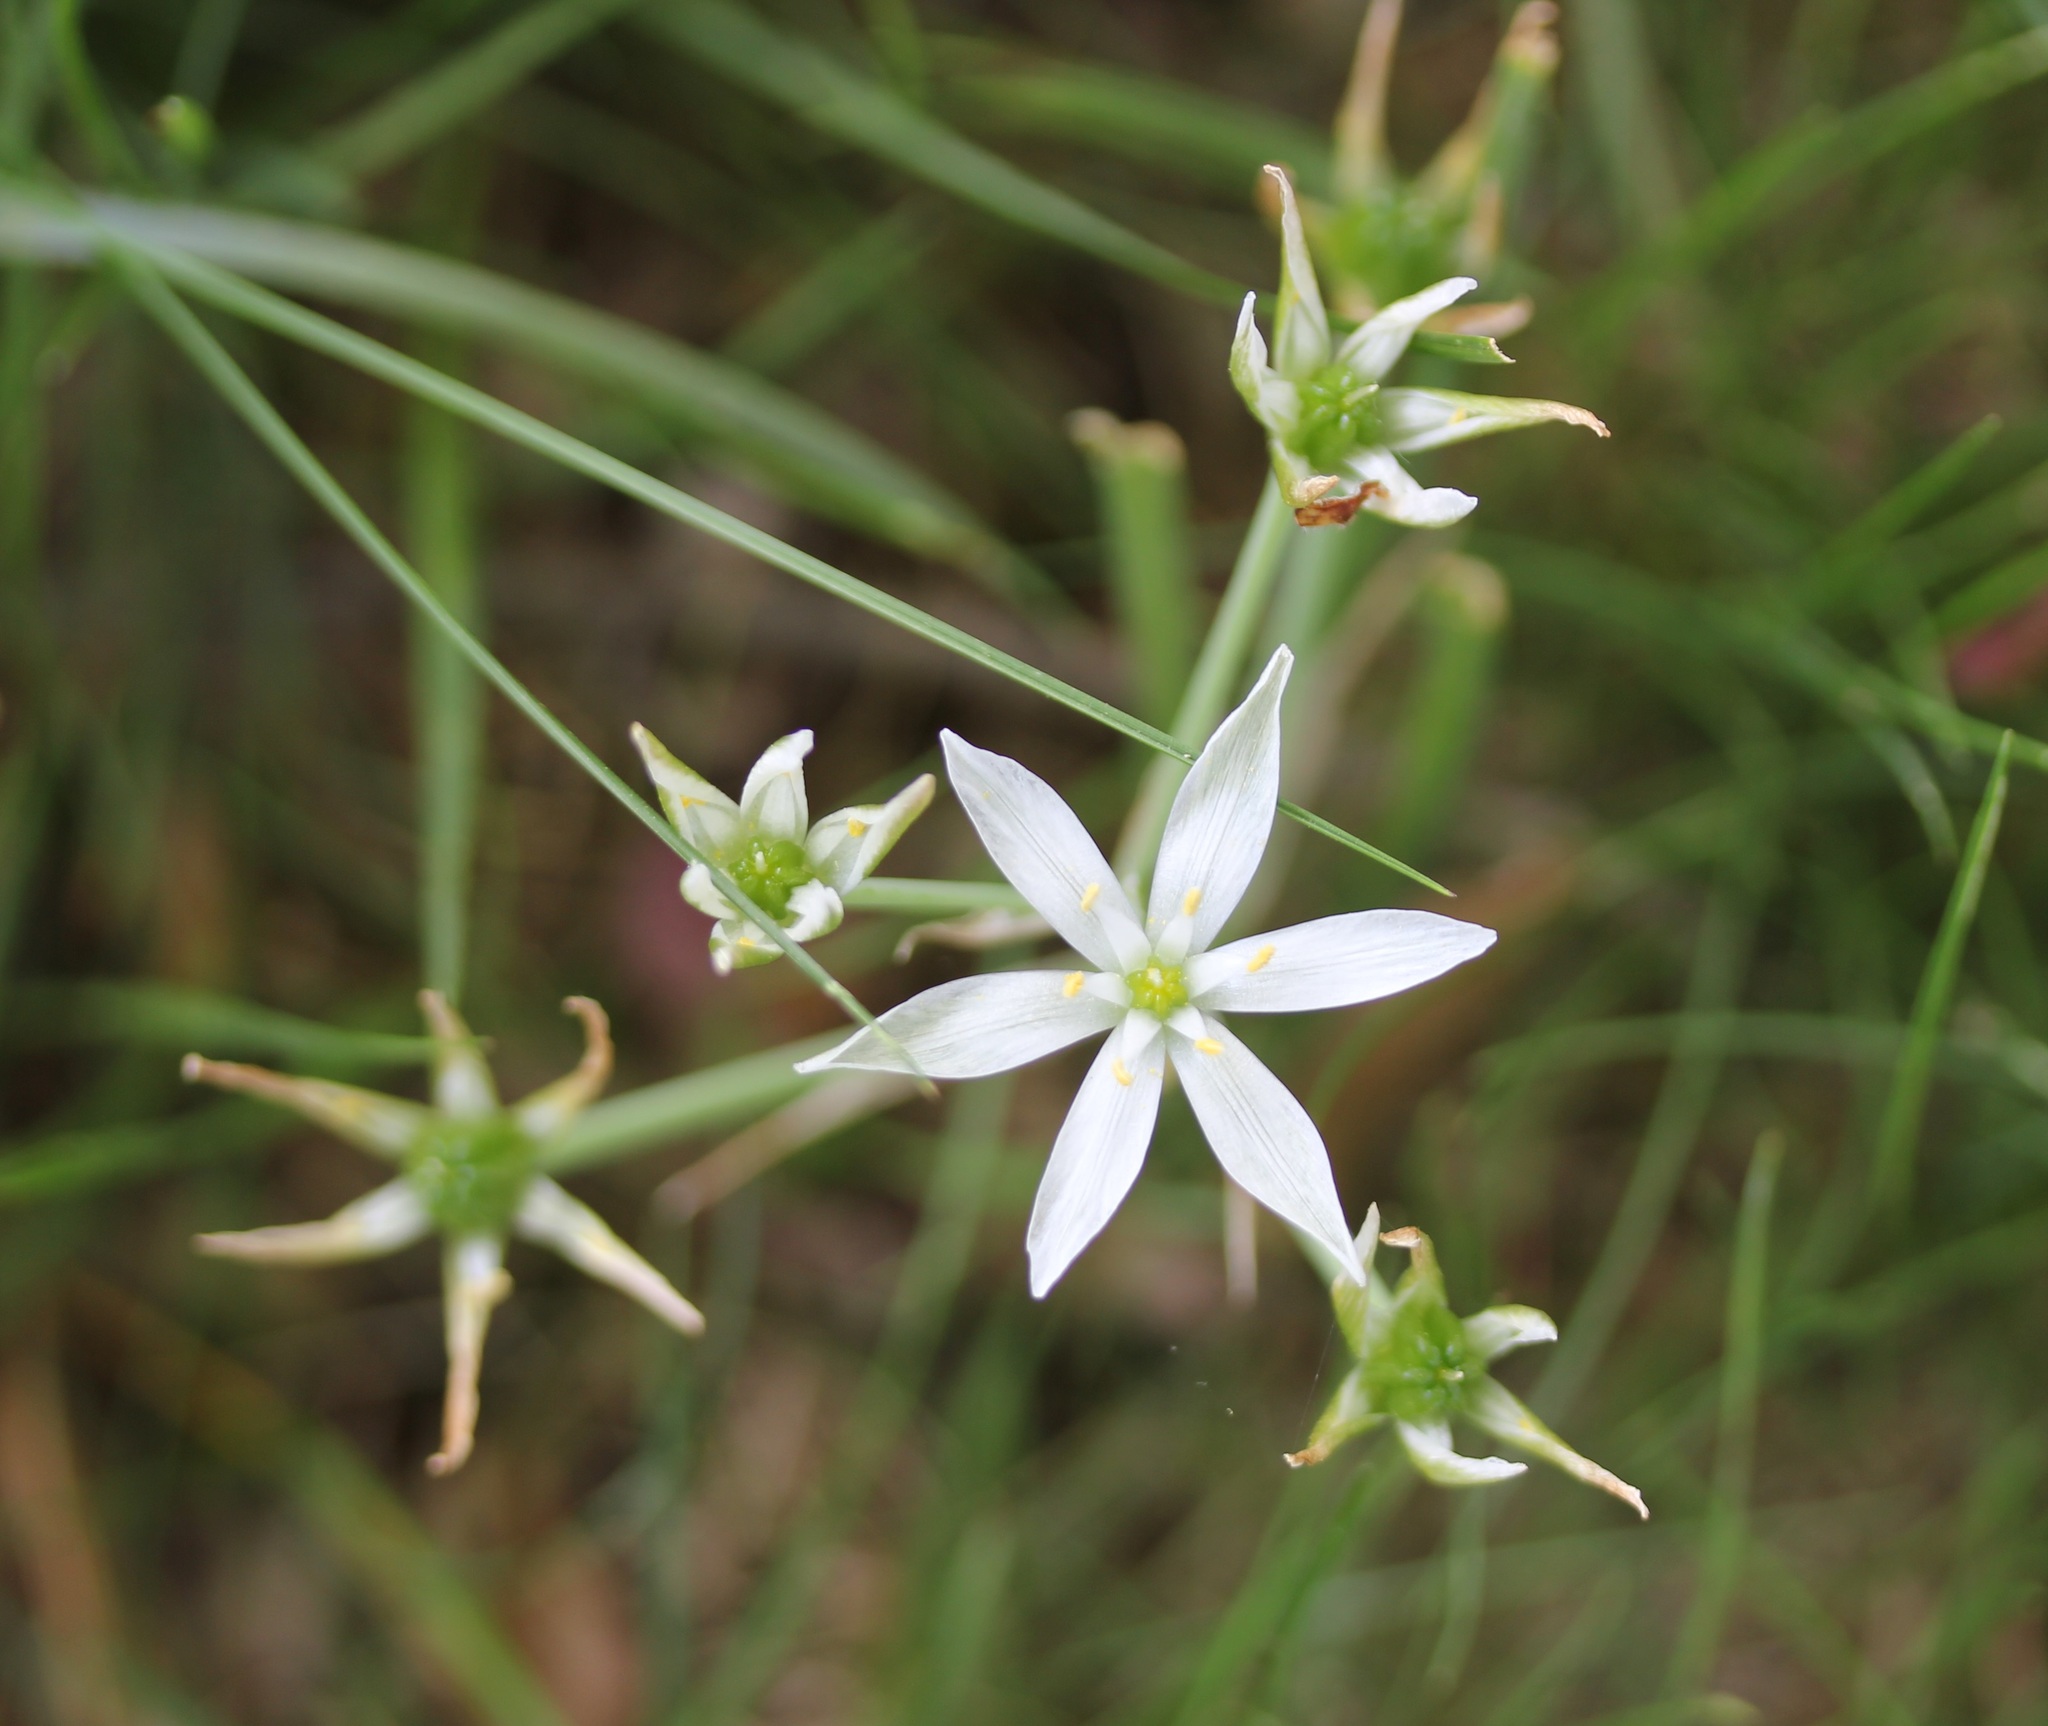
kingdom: Plantae
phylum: Tracheophyta
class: Liliopsida
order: Asparagales
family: Asparagaceae
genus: Ornithogalum
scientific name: Ornithogalum umbellatum
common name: Garden star-of-bethlehem
